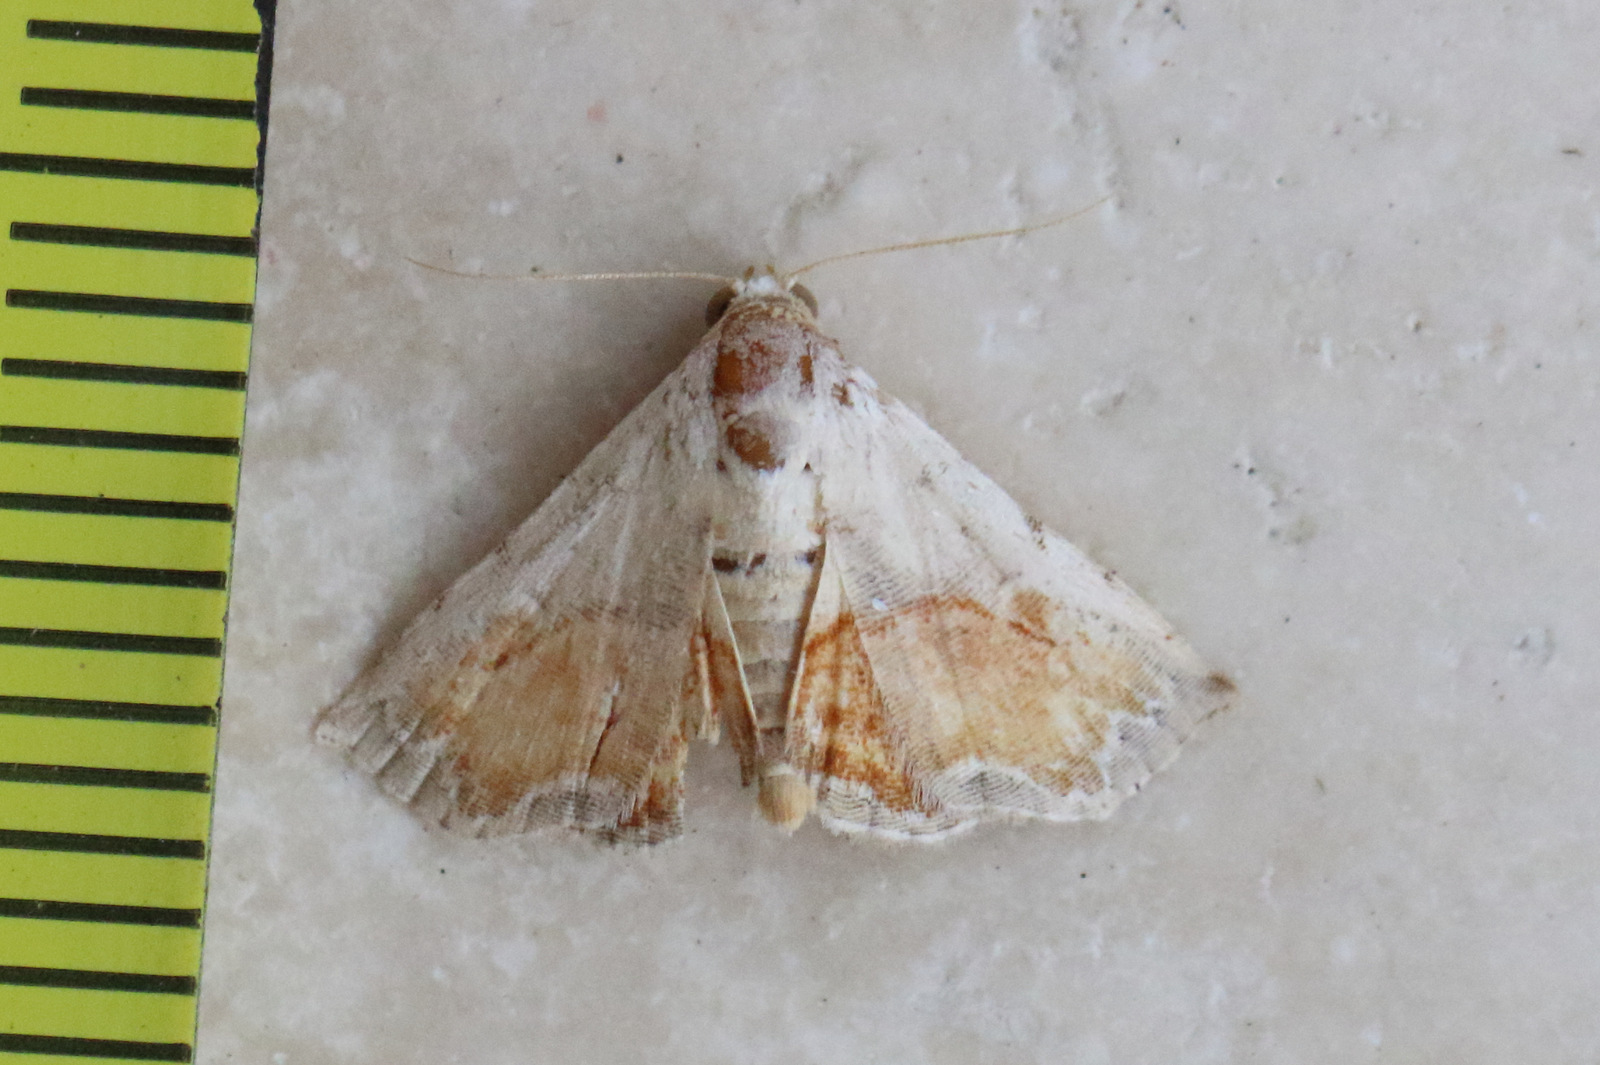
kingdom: Animalia
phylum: Arthropoda
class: Insecta
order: Lepidoptera
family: Noctuidae
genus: Eublemma
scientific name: Eublemma
